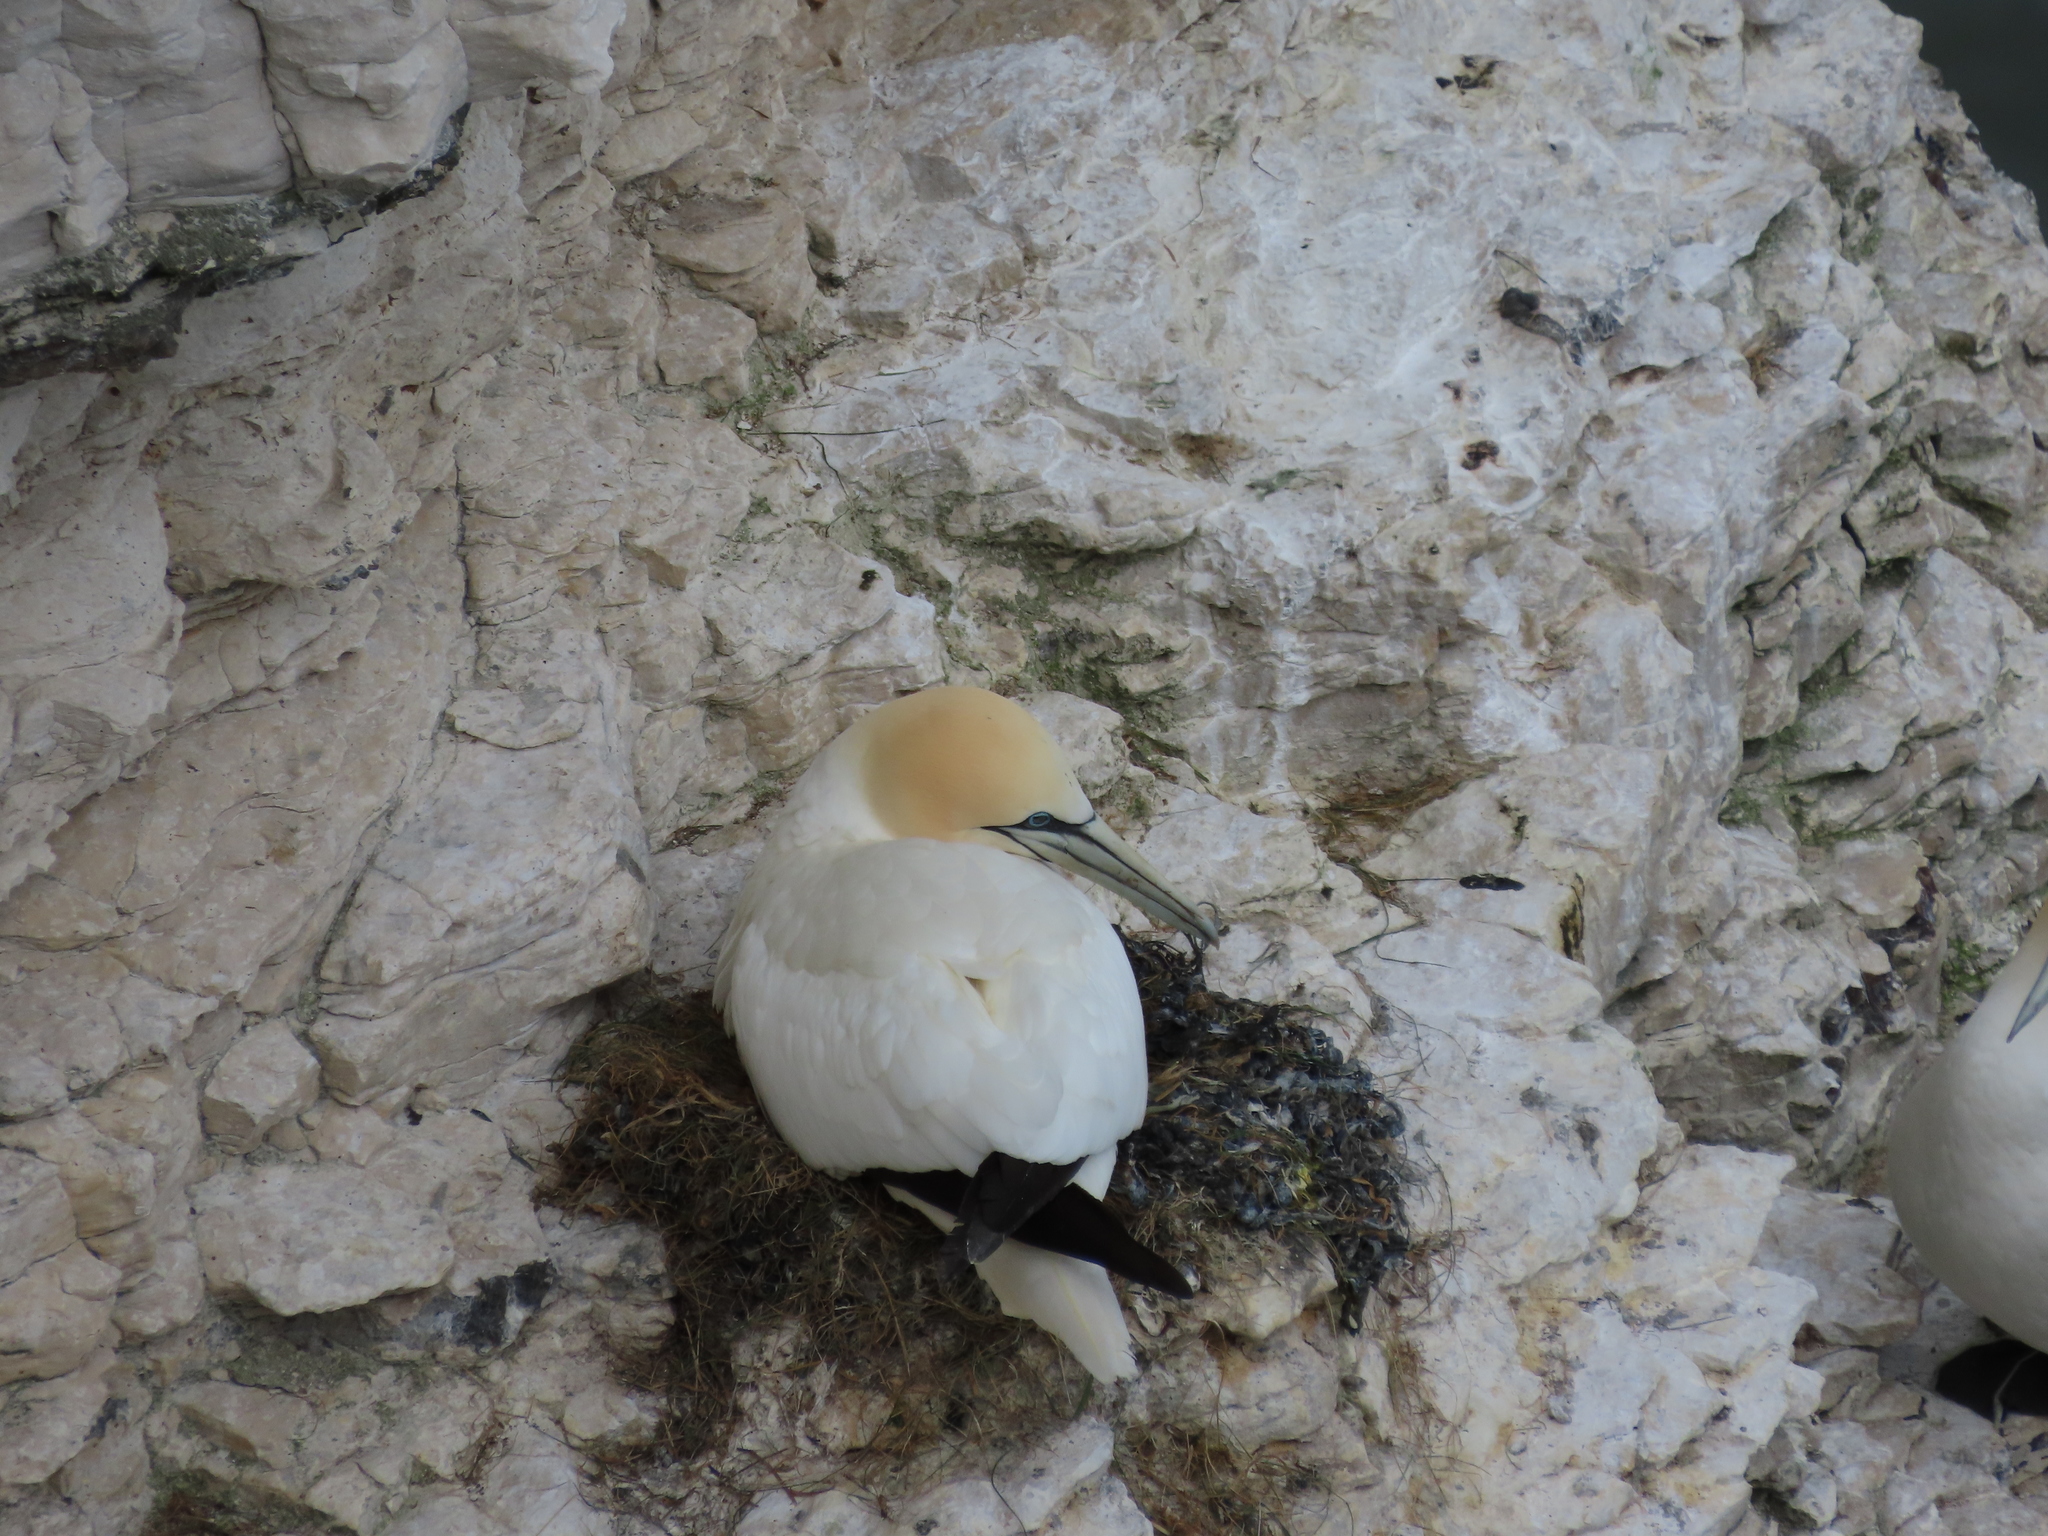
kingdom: Animalia
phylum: Chordata
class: Aves
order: Suliformes
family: Sulidae
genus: Morus
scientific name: Morus bassanus
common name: Northern gannet
